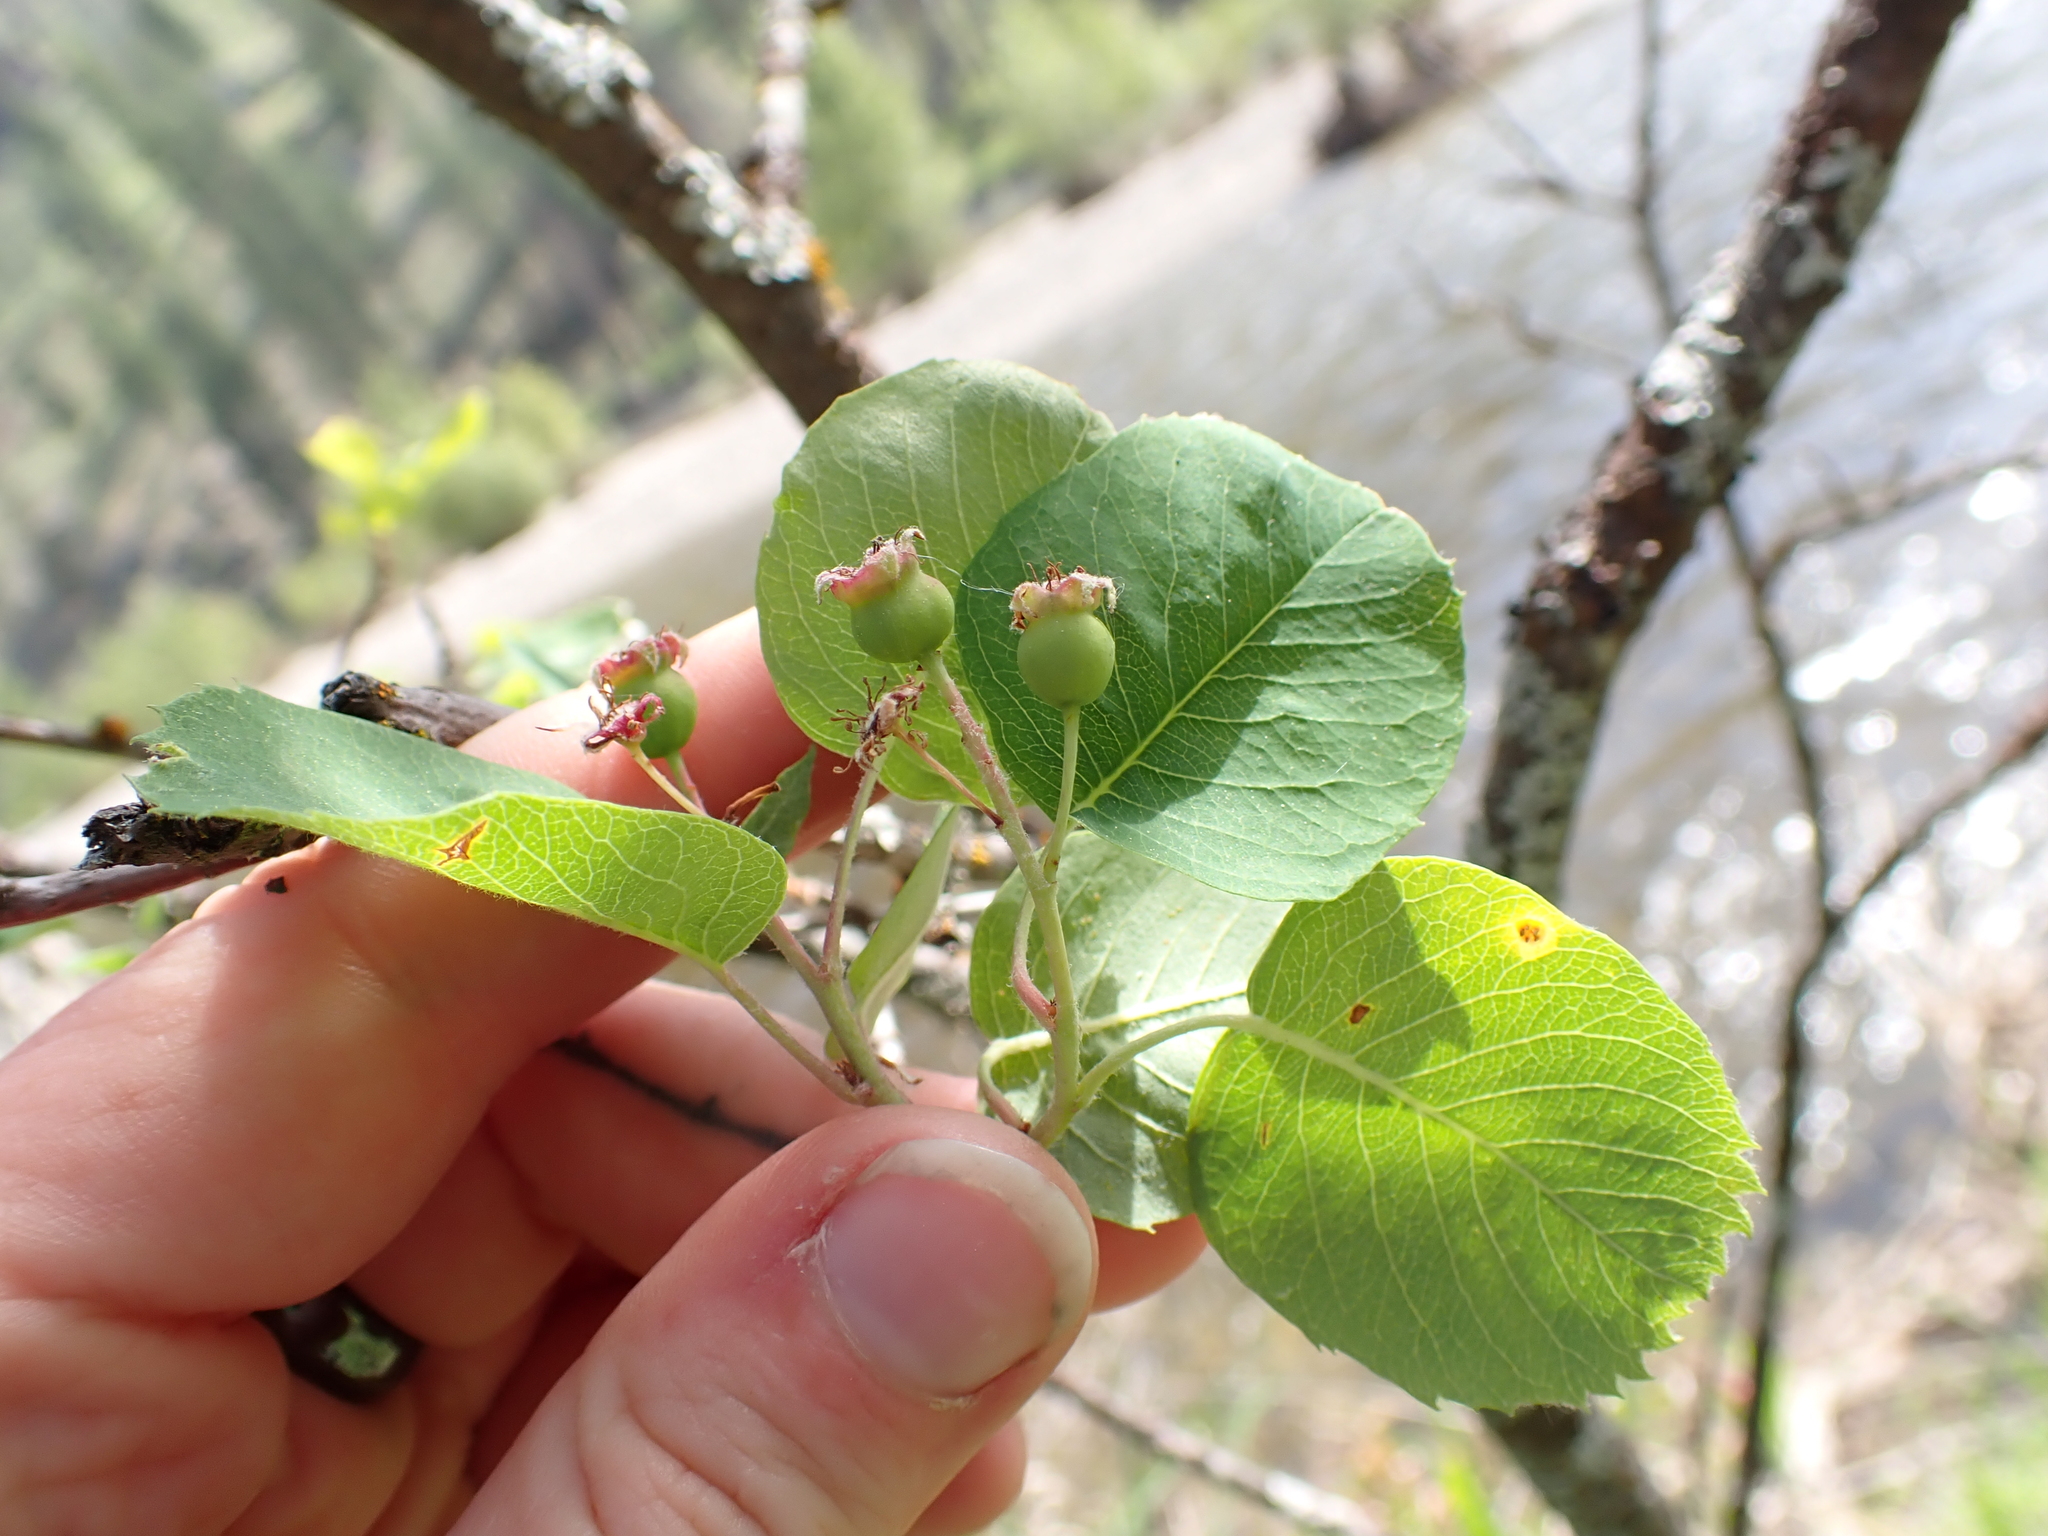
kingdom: Plantae
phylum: Tracheophyta
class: Magnoliopsida
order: Rosales
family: Rosaceae
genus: Amelanchier
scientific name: Amelanchier alnifolia
